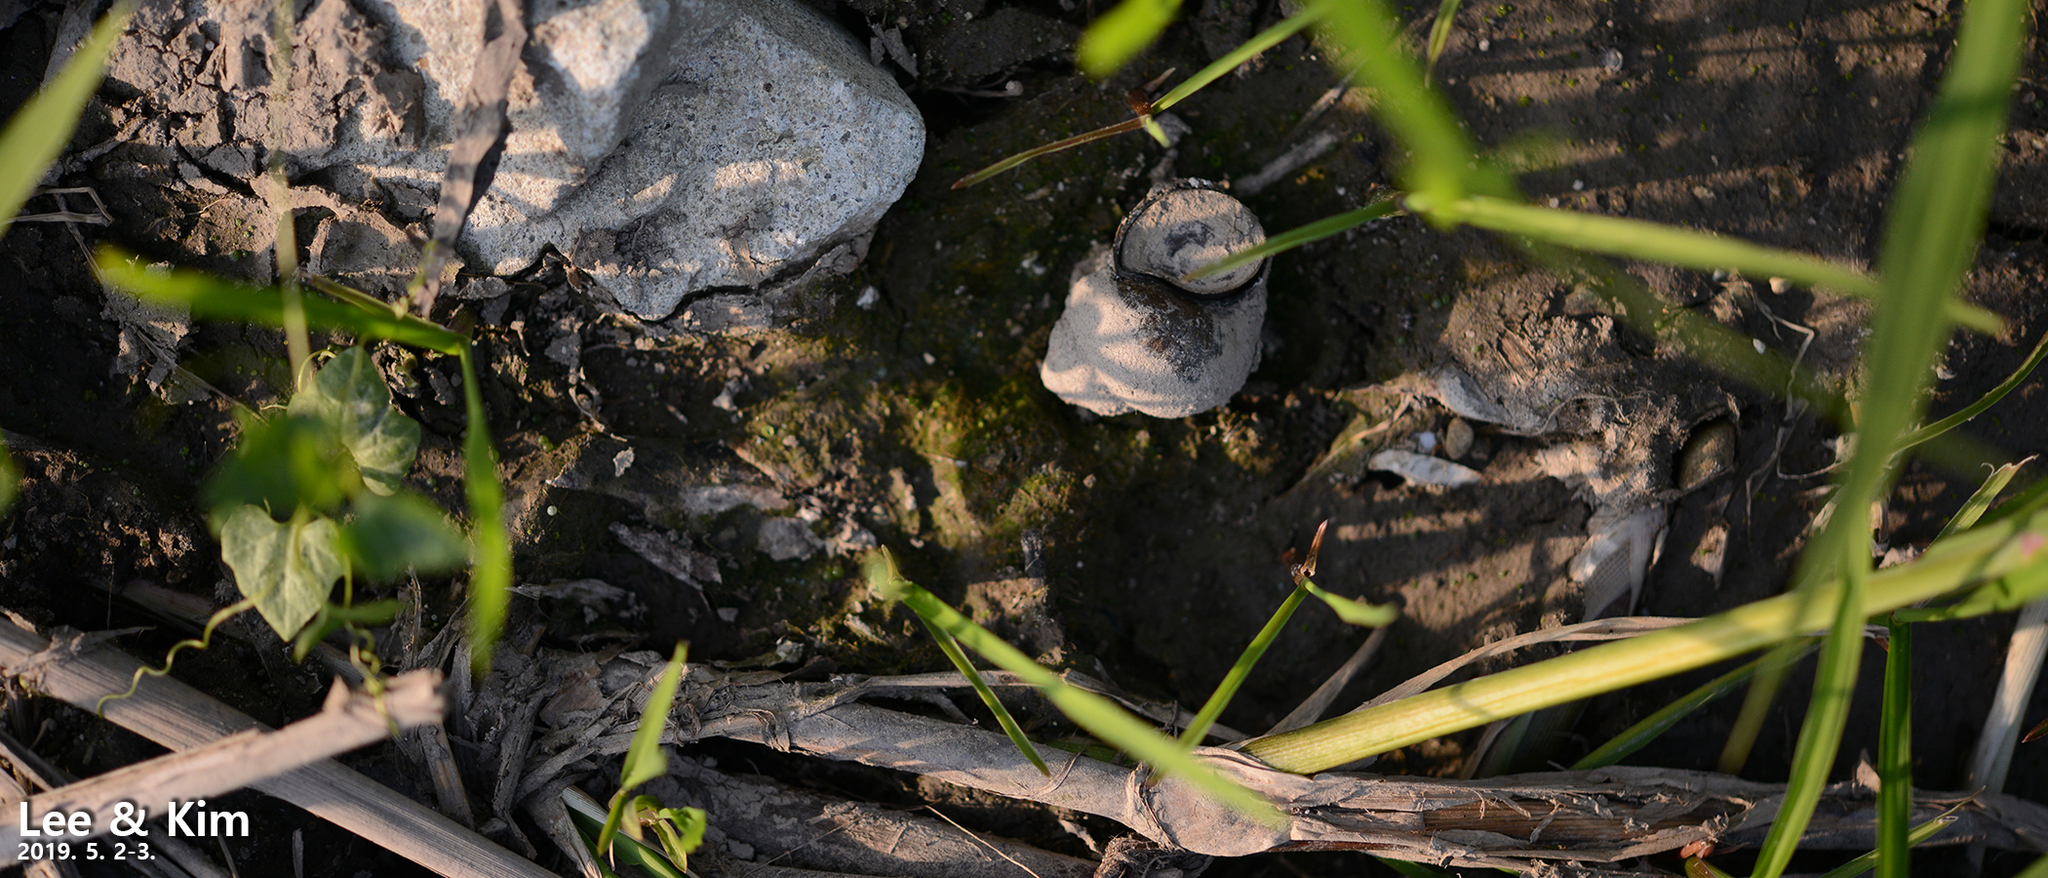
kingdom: Animalia
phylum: Mollusca
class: Gastropoda
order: Architaenioglossa
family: Viviparidae
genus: Cipangopaludina
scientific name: Cipangopaludina chinensis
